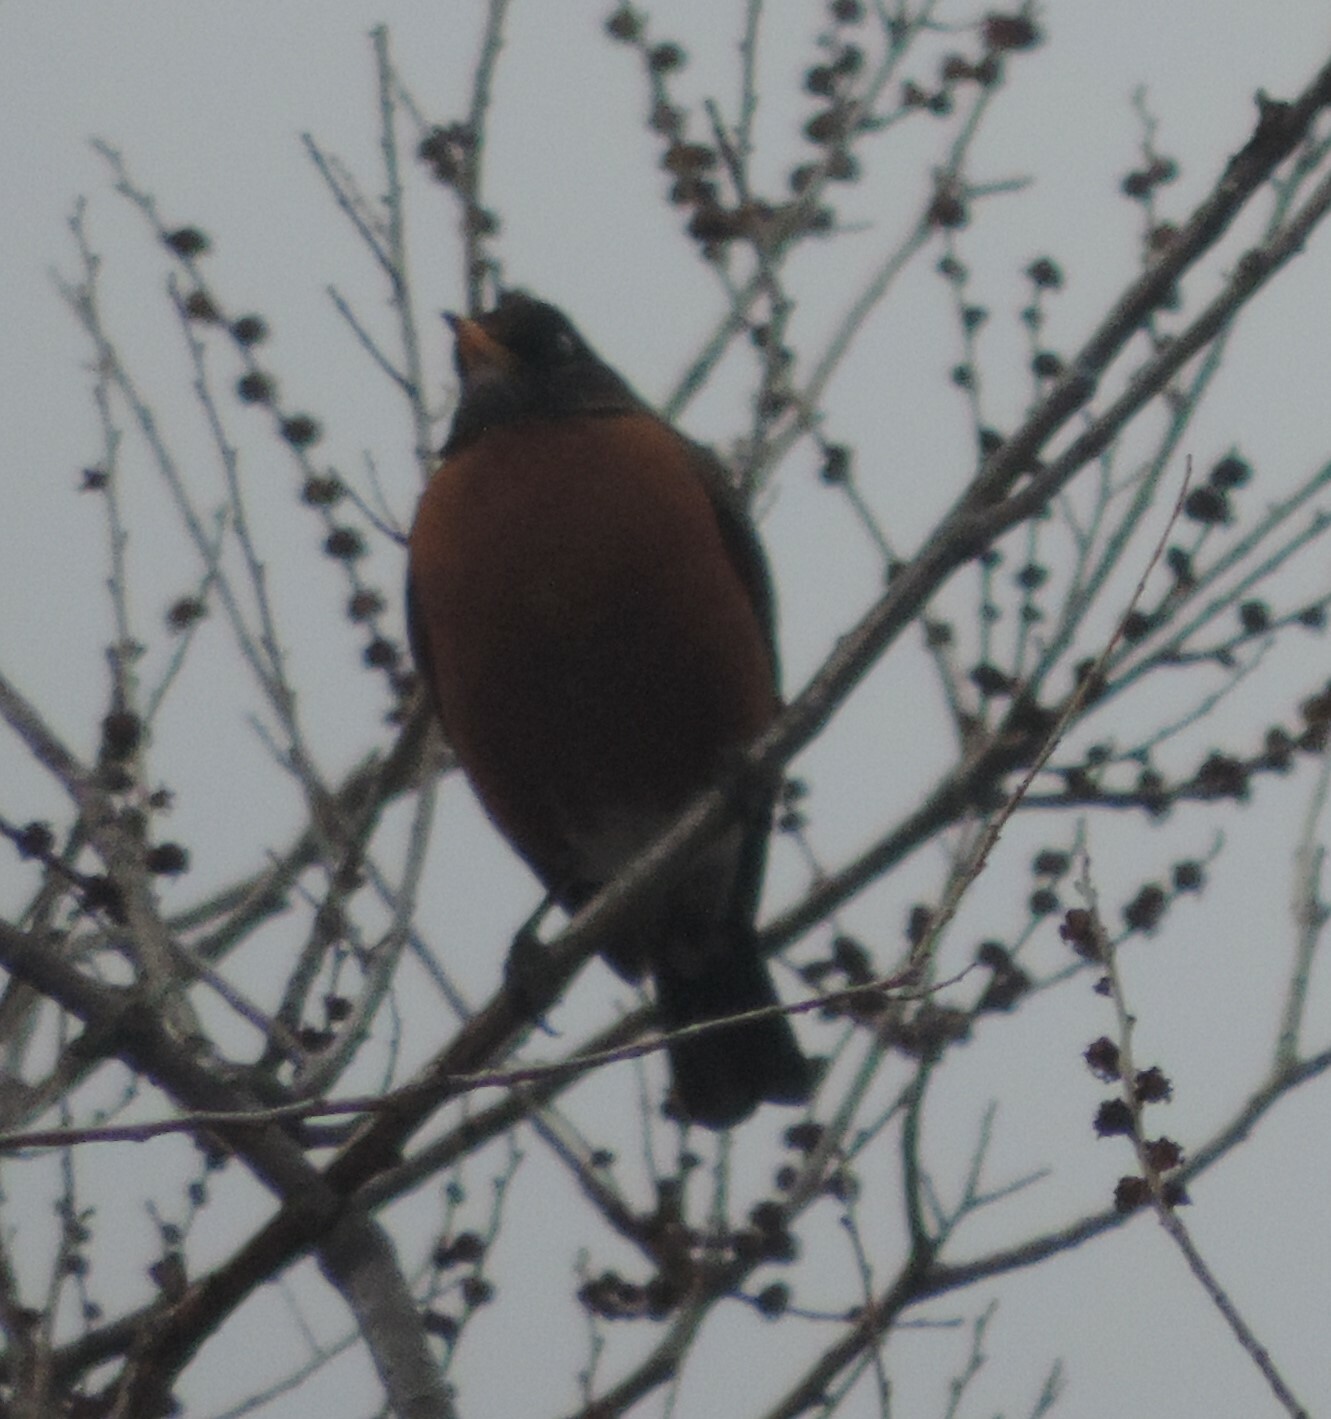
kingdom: Animalia
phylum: Chordata
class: Aves
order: Passeriformes
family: Turdidae
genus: Turdus
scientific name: Turdus migratorius
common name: American robin
